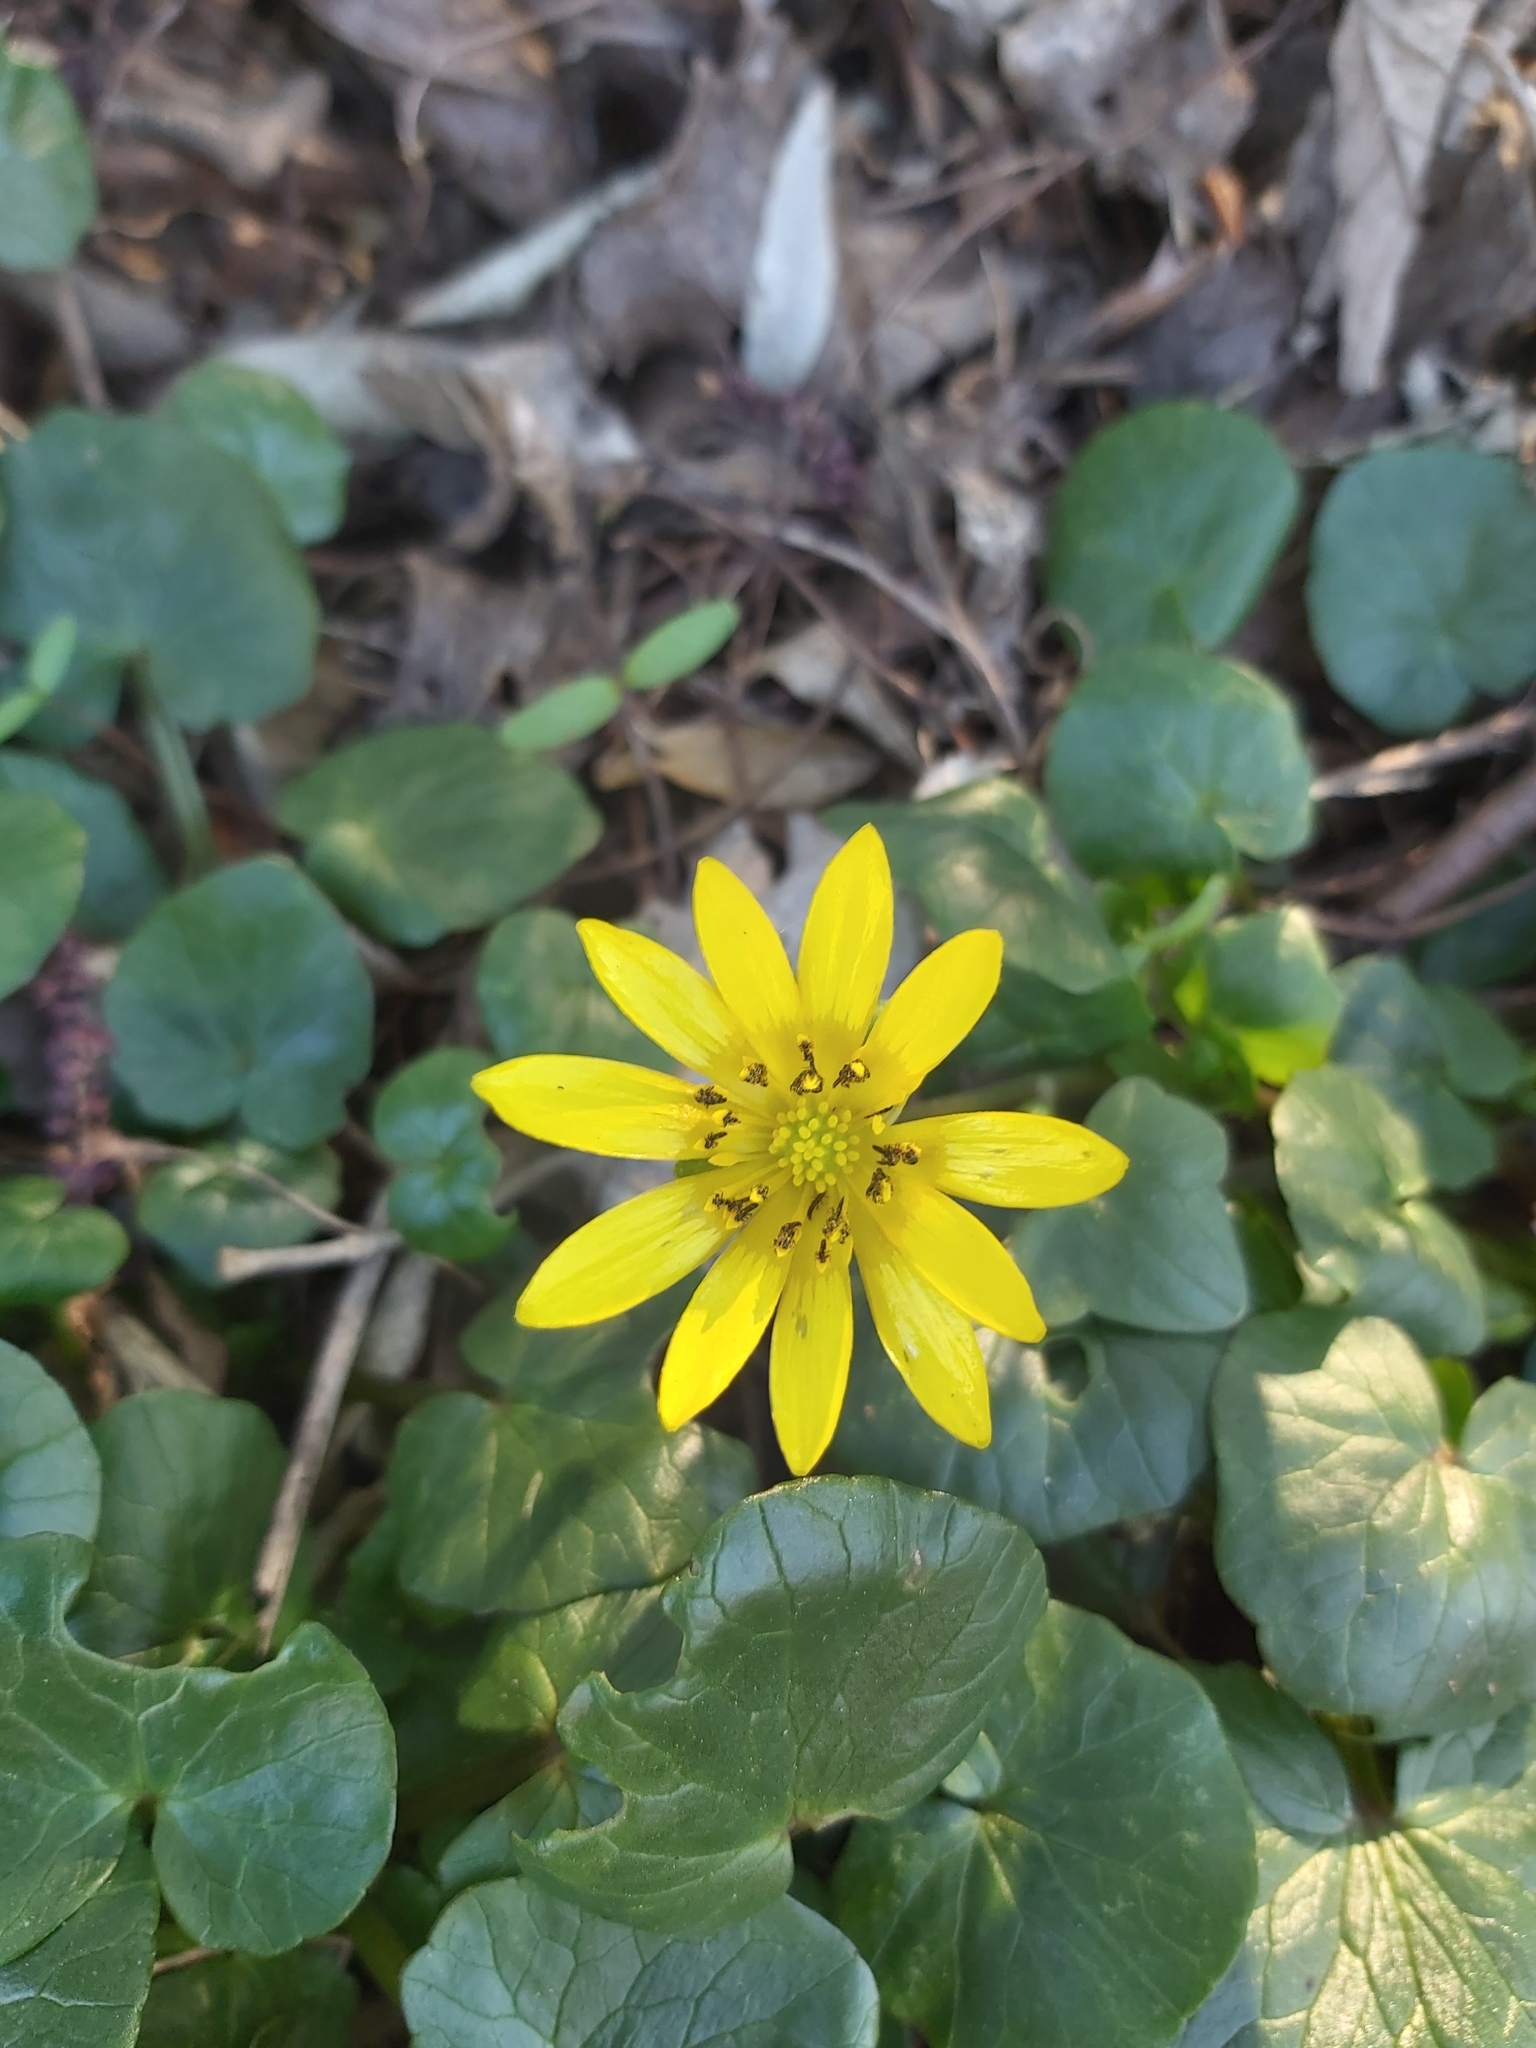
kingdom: Plantae
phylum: Tracheophyta
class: Magnoliopsida
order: Ranunculales
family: Ranunculaceae
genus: Ficaria
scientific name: Ficaria verna
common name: Lesser celandine
